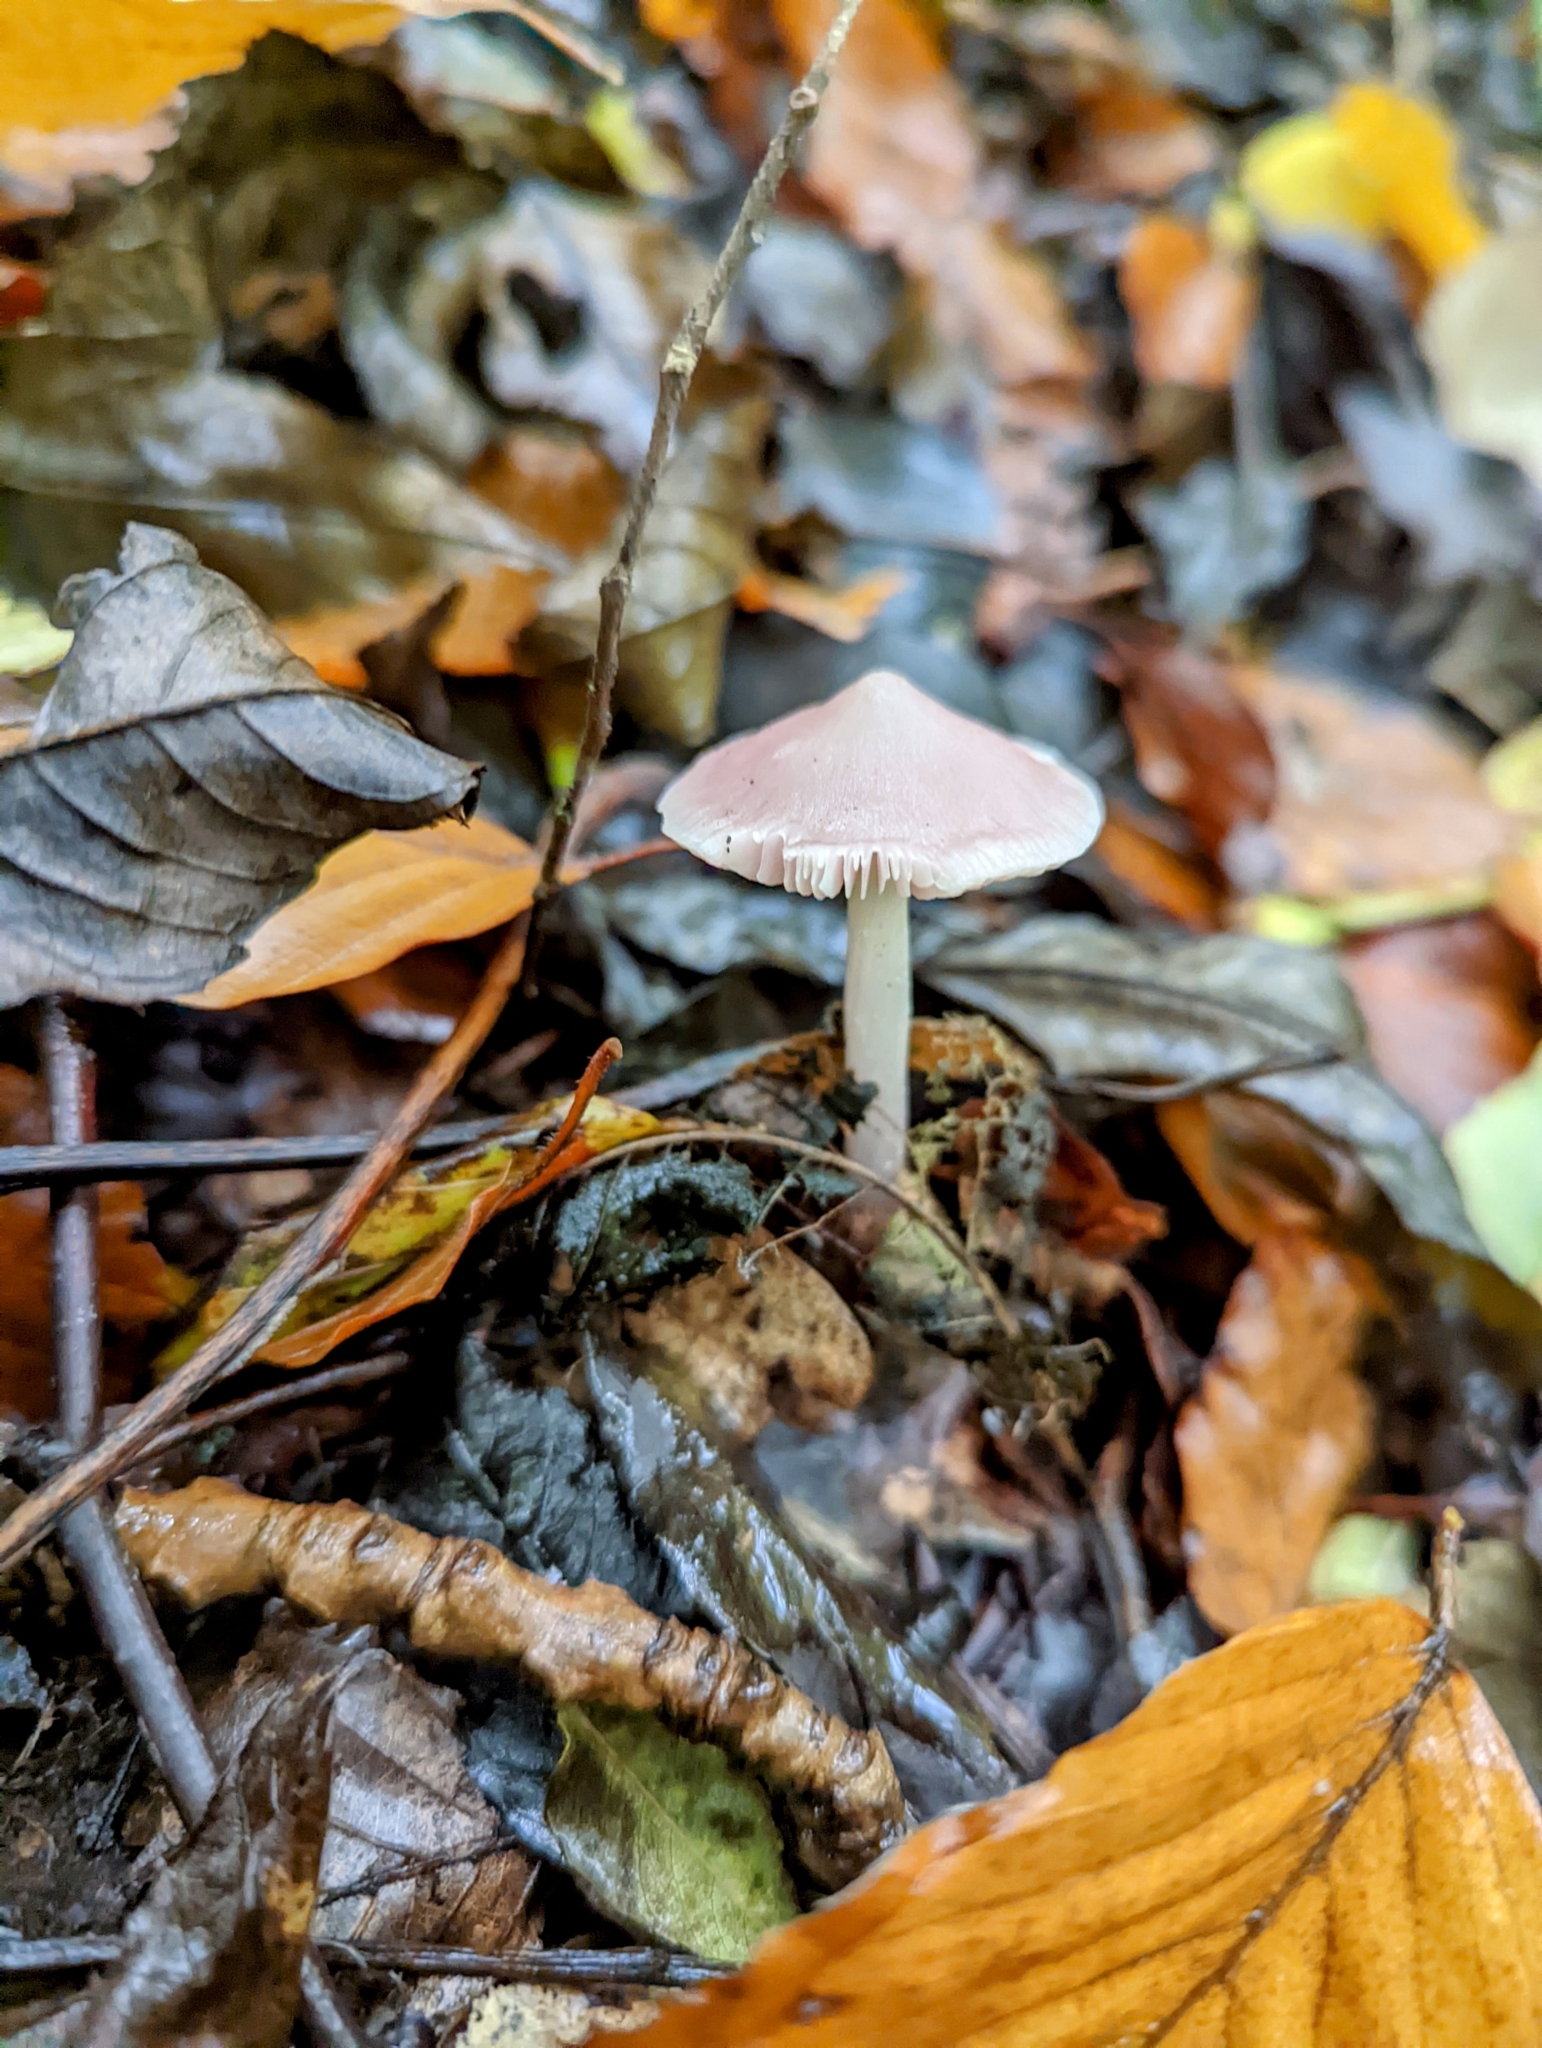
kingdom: Fungi
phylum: Basidiomycota
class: Agaricomycetes
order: Agaricales
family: Mycenaceae
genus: Mycena
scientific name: Mycena rosea
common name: Rosy bonnet
